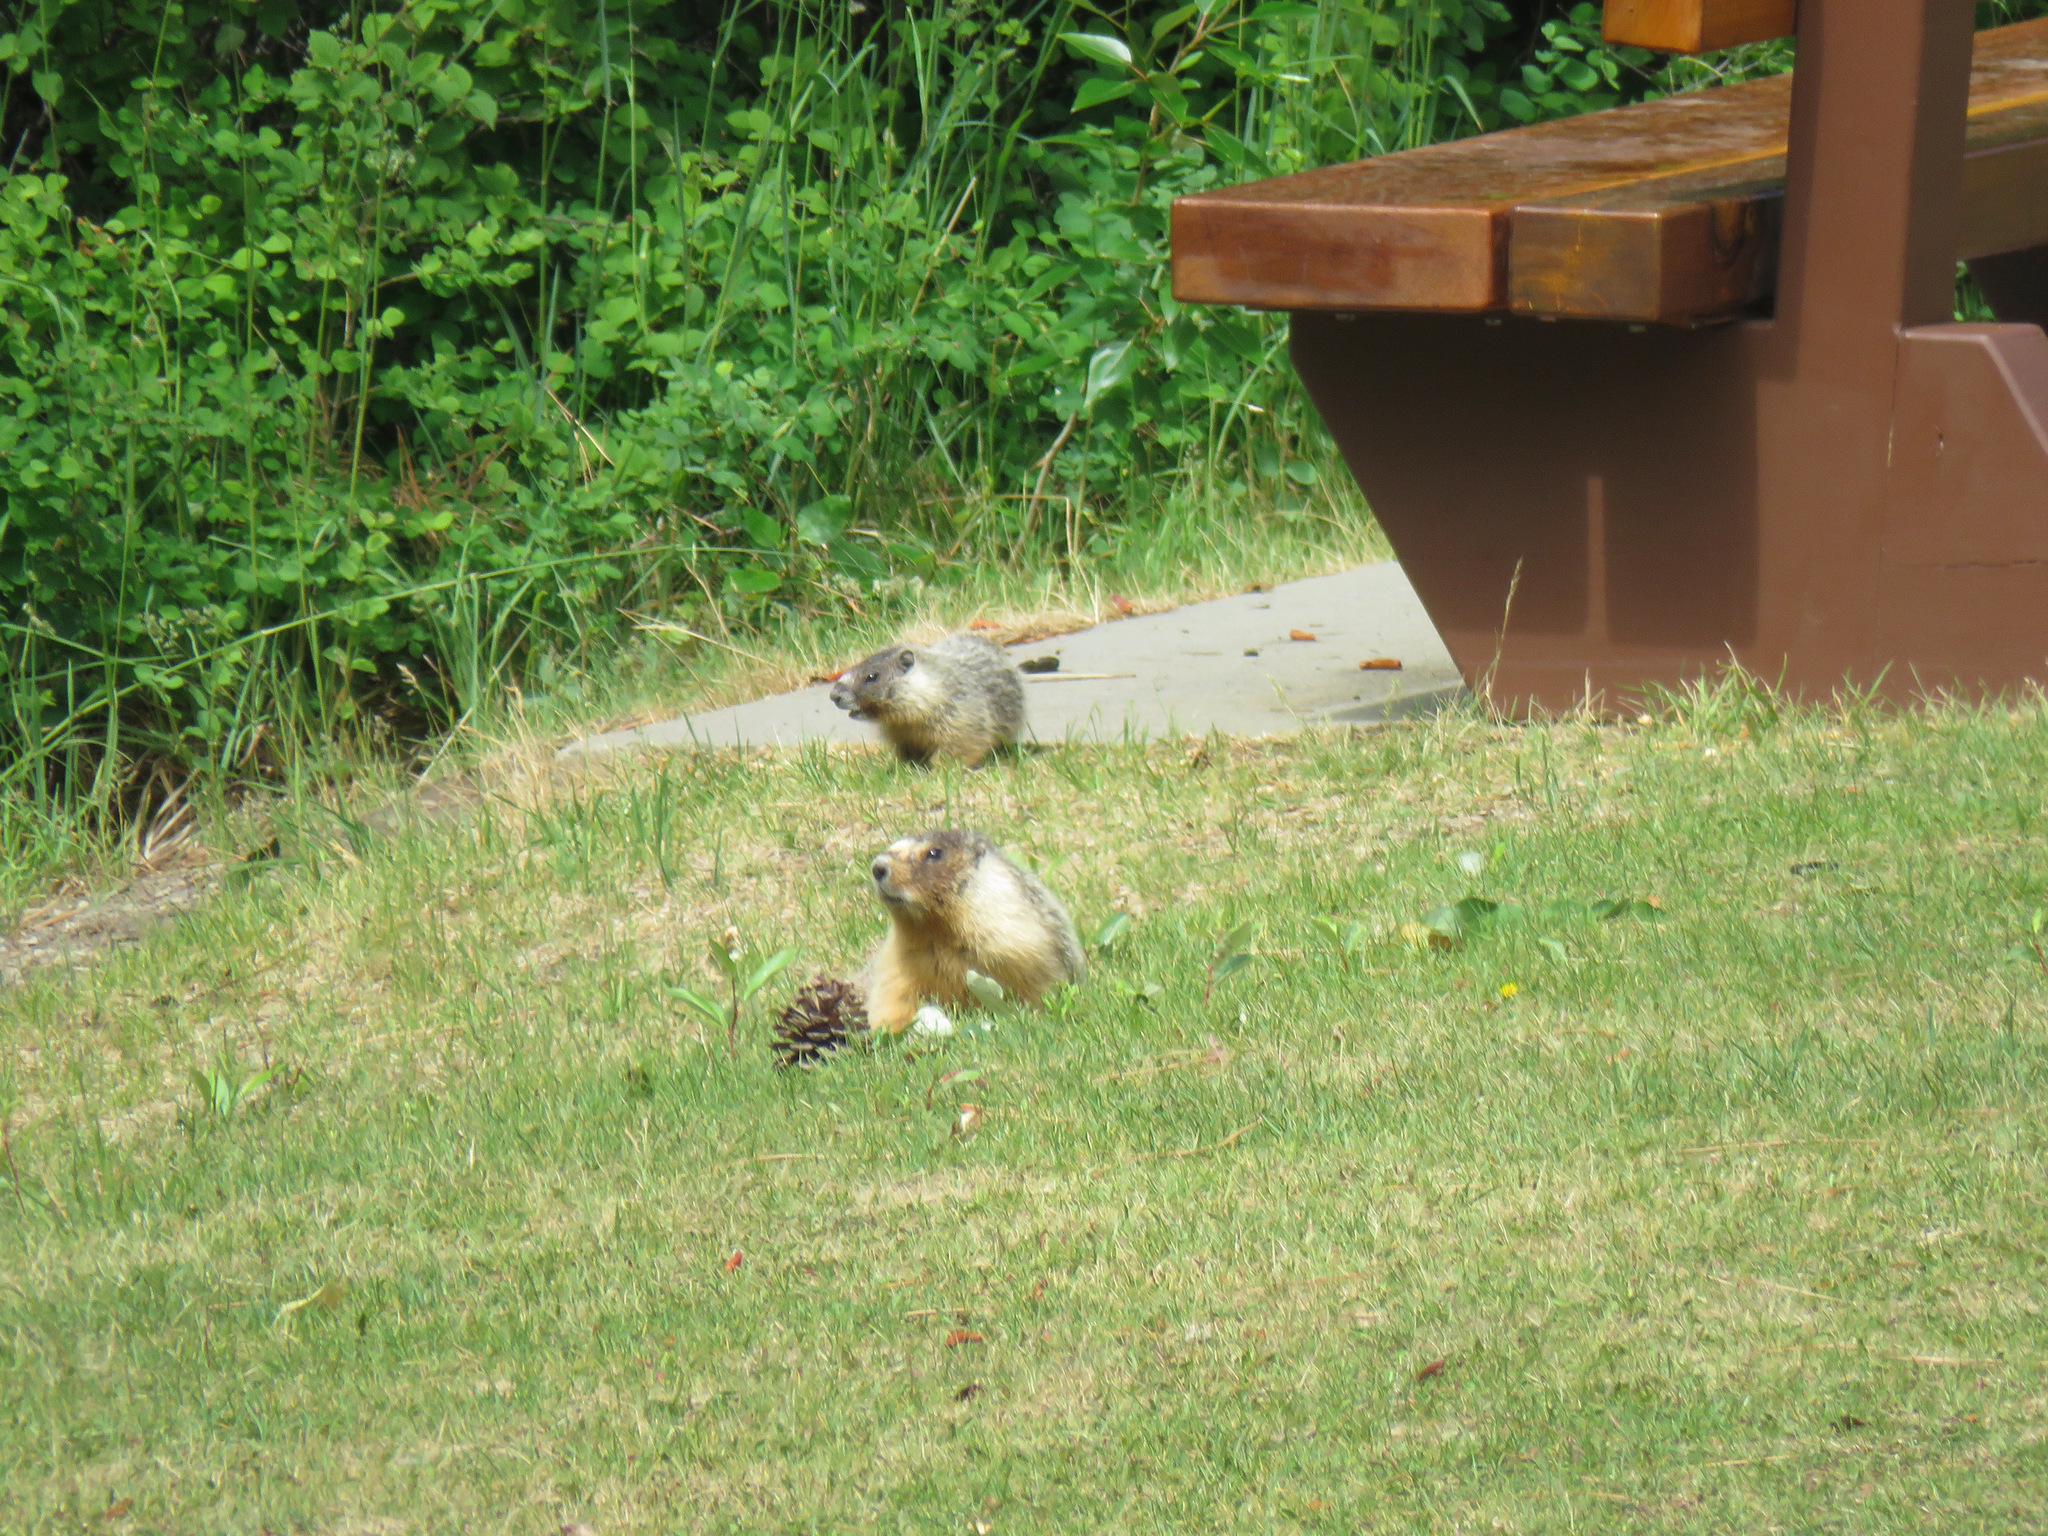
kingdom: Animalia
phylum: Chordata
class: Mammalia
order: Rodentia
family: Sciuridae
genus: Marmota
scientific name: Marmota flaviventris
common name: Yellow-bellied marmot
